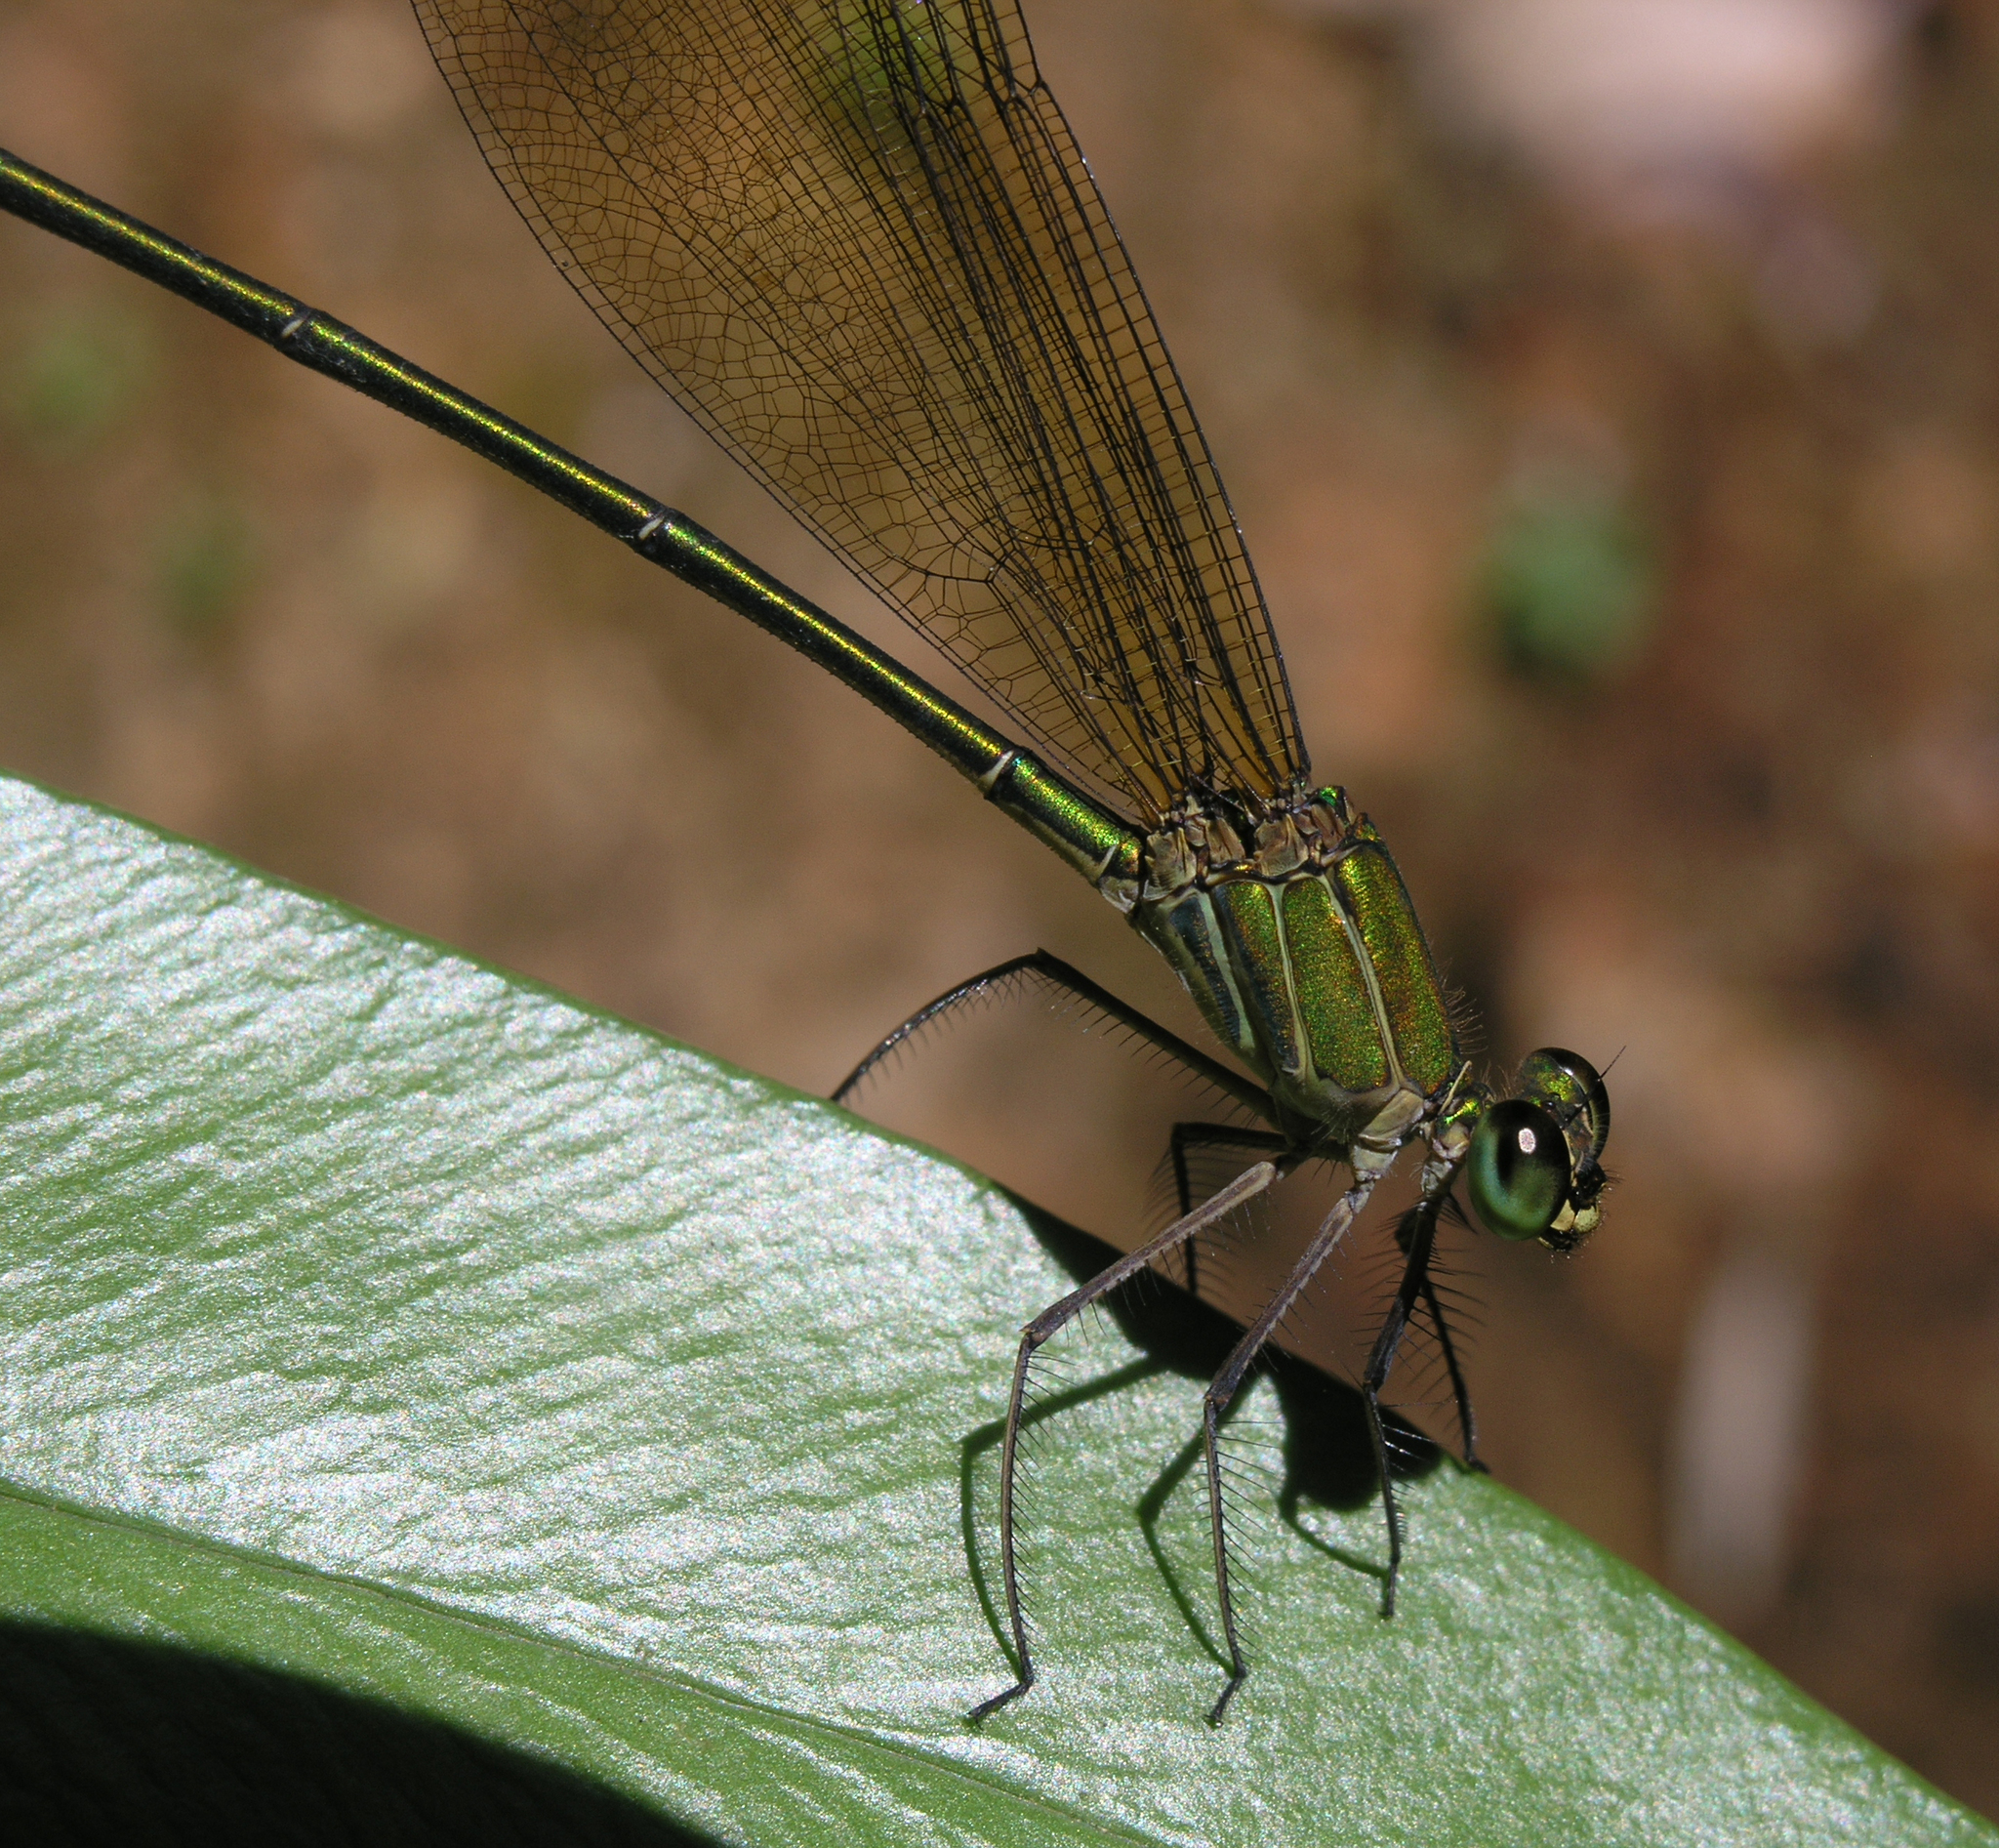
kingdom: Animalia
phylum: Arthropoda
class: Insecta
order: Odonata
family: Calopterygidae
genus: Vestalis
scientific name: Vestalis gracilis
